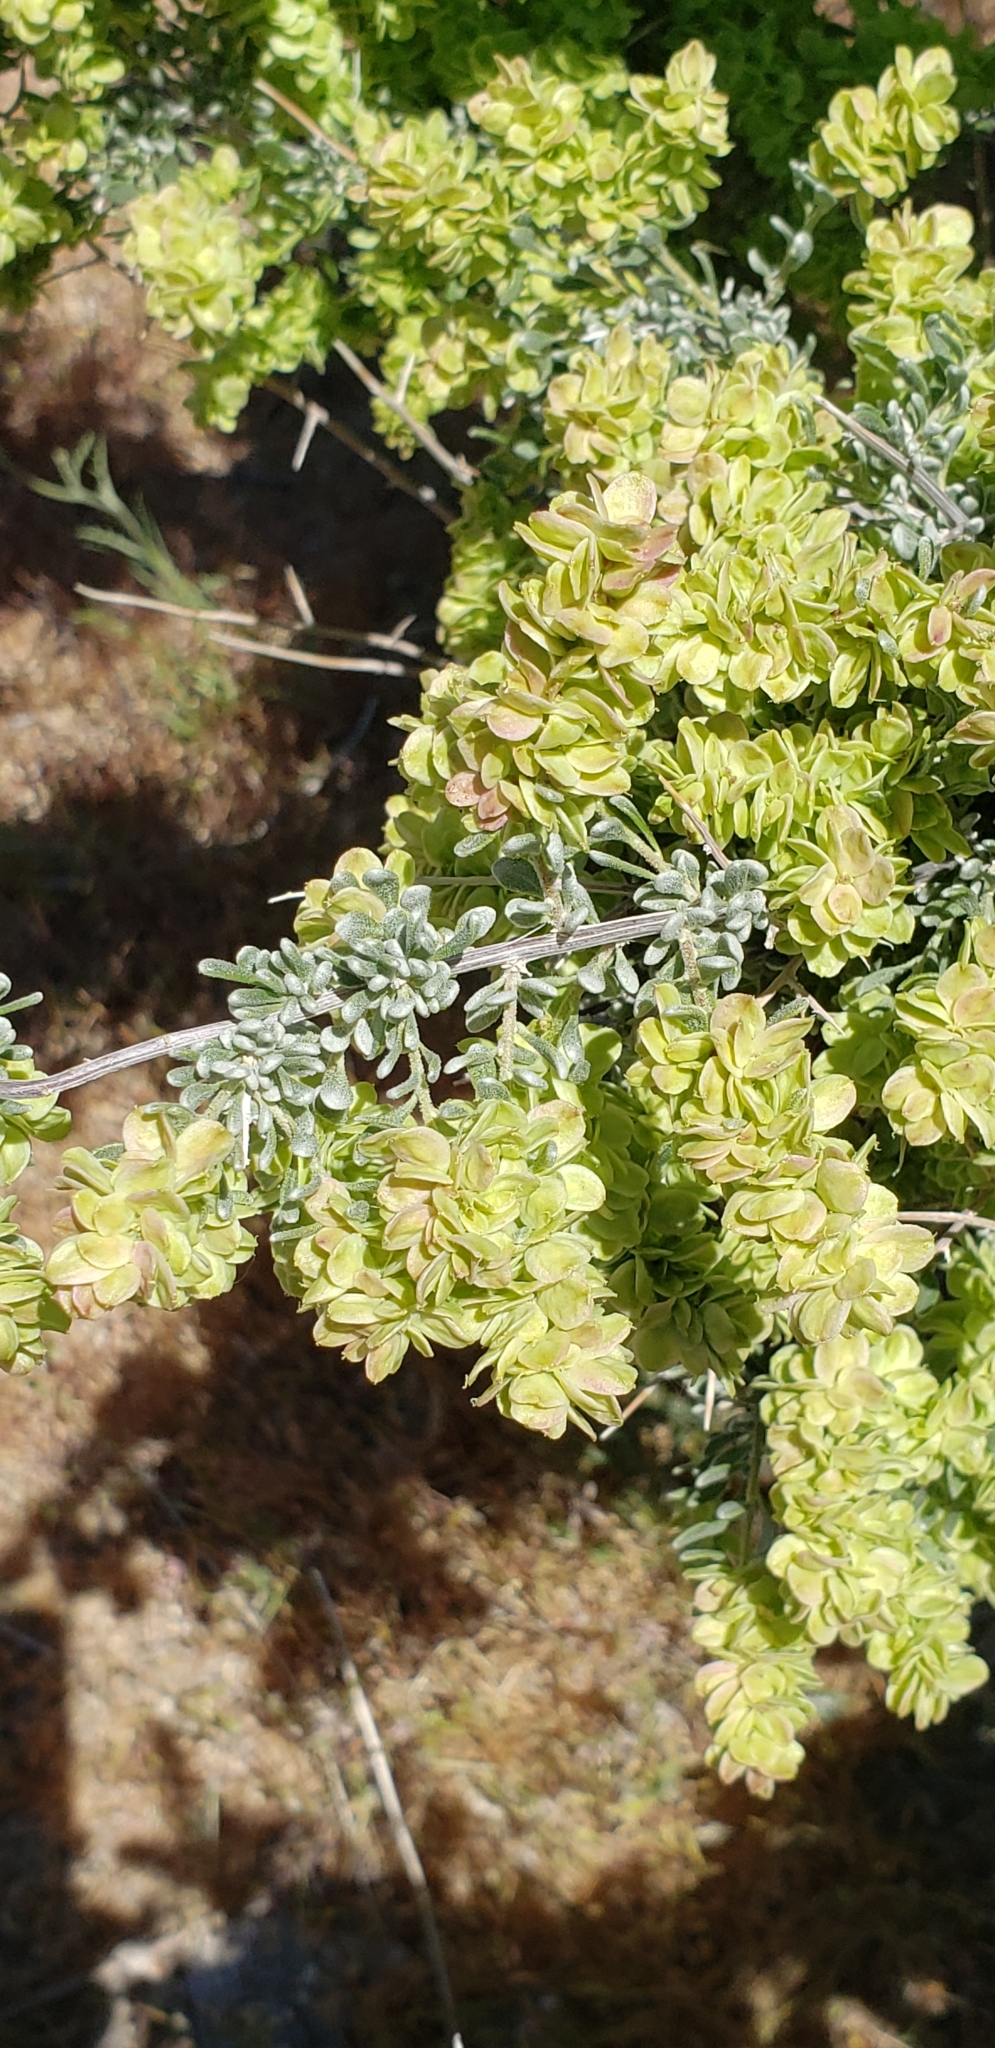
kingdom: Plantae
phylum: Tracheophyta
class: Magnoliopsida
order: Caryophyllales
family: Amaranthaceae
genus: Grayia
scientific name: Grayia spinosa
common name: Spiny hopsage
